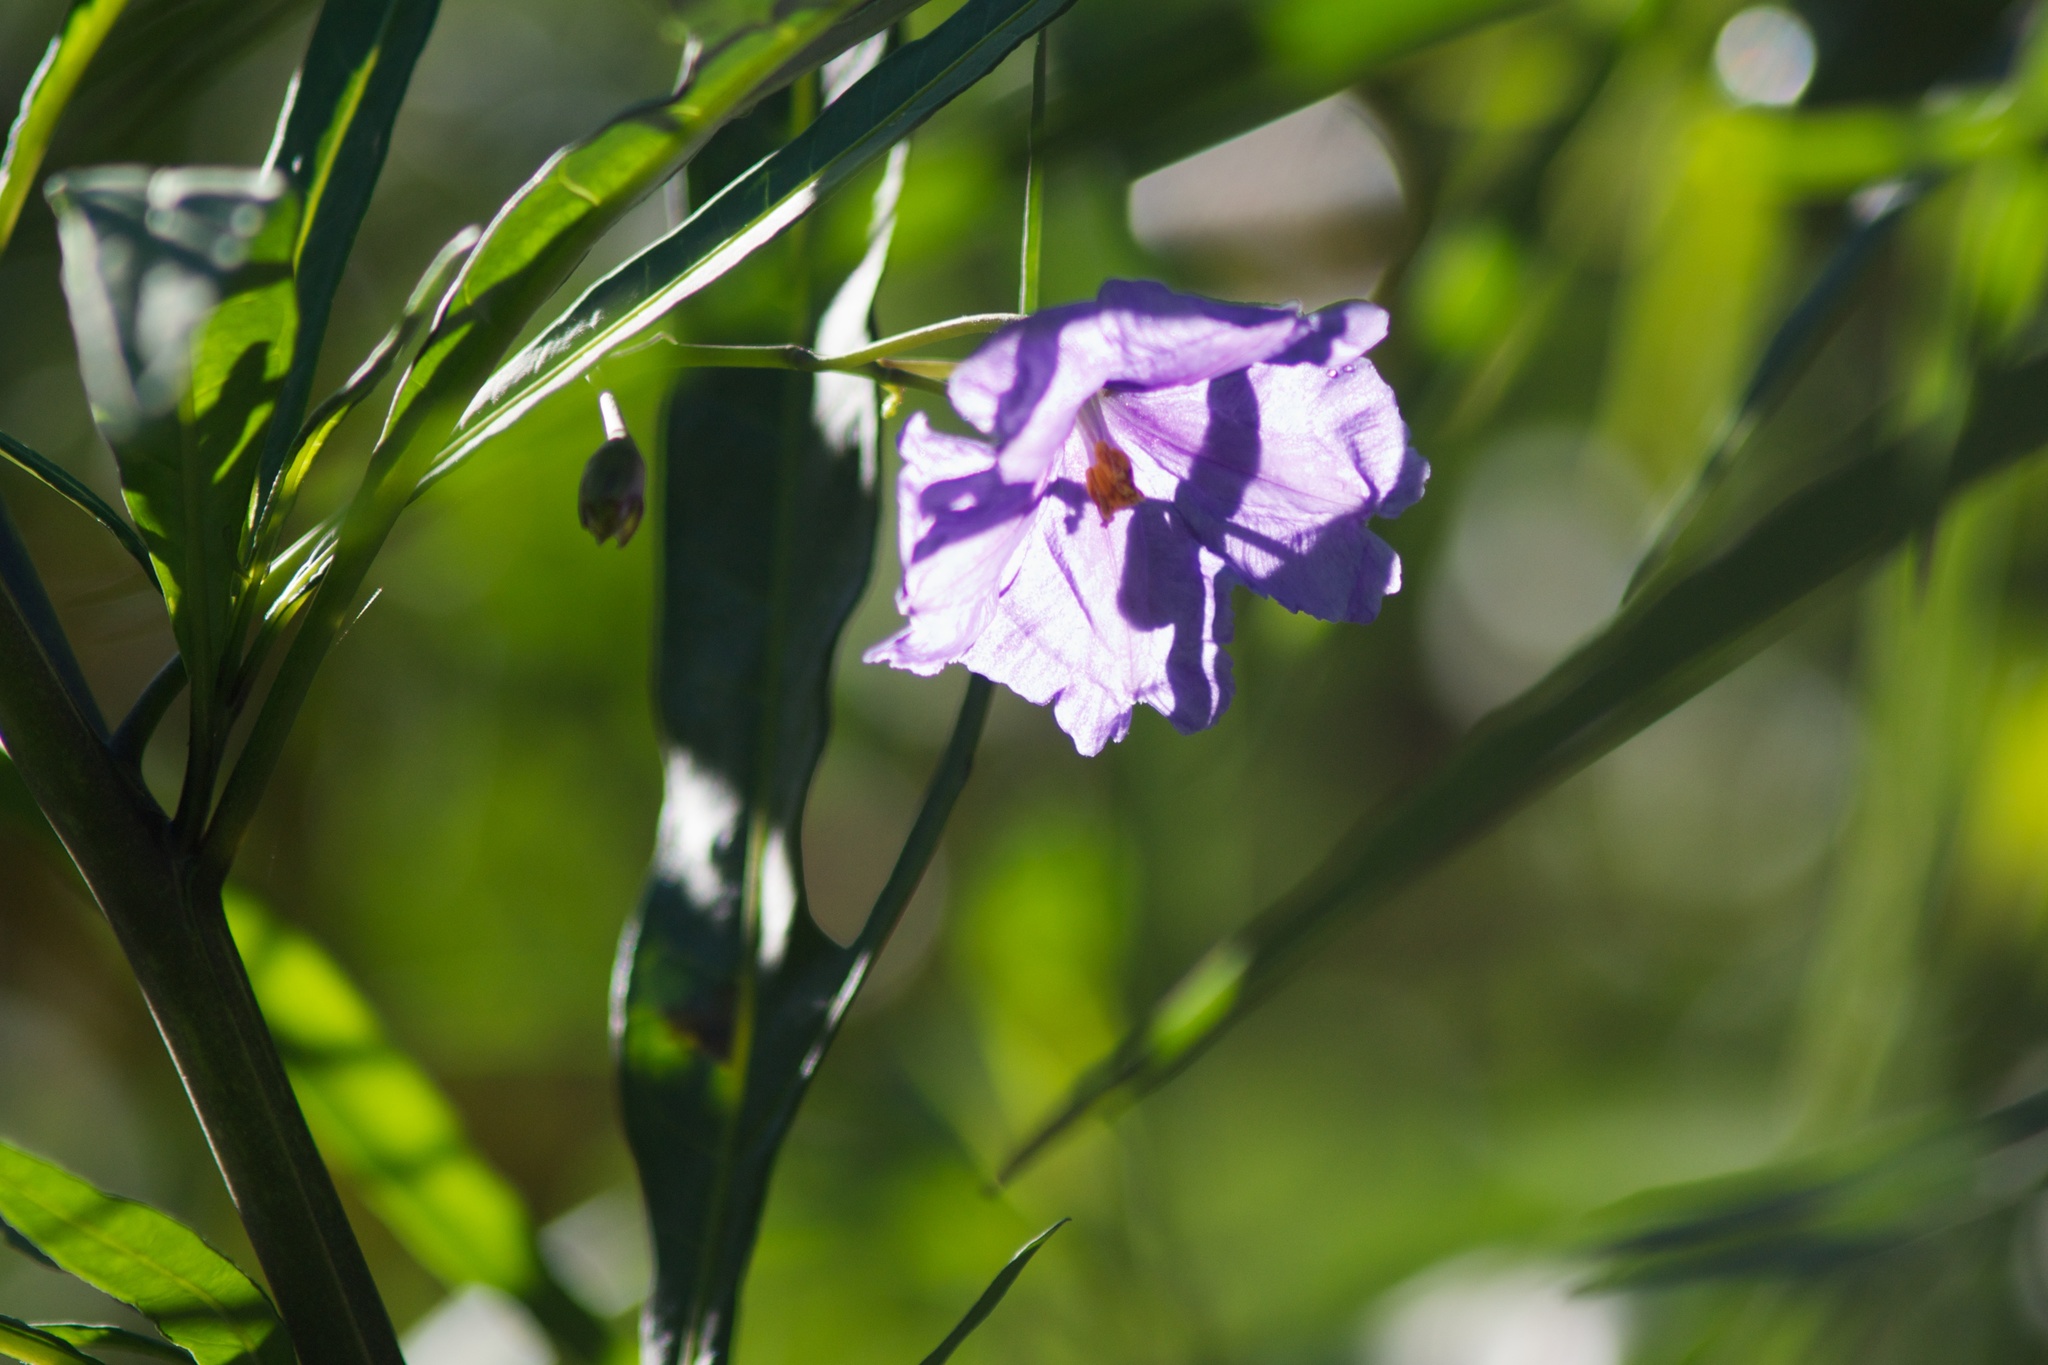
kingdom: Plantae
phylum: Tracheophyta
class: Magnoliopsida
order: Solanales
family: Solanaceae
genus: Solanum
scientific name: Solanum laciniatum
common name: Kangaroo-apple
